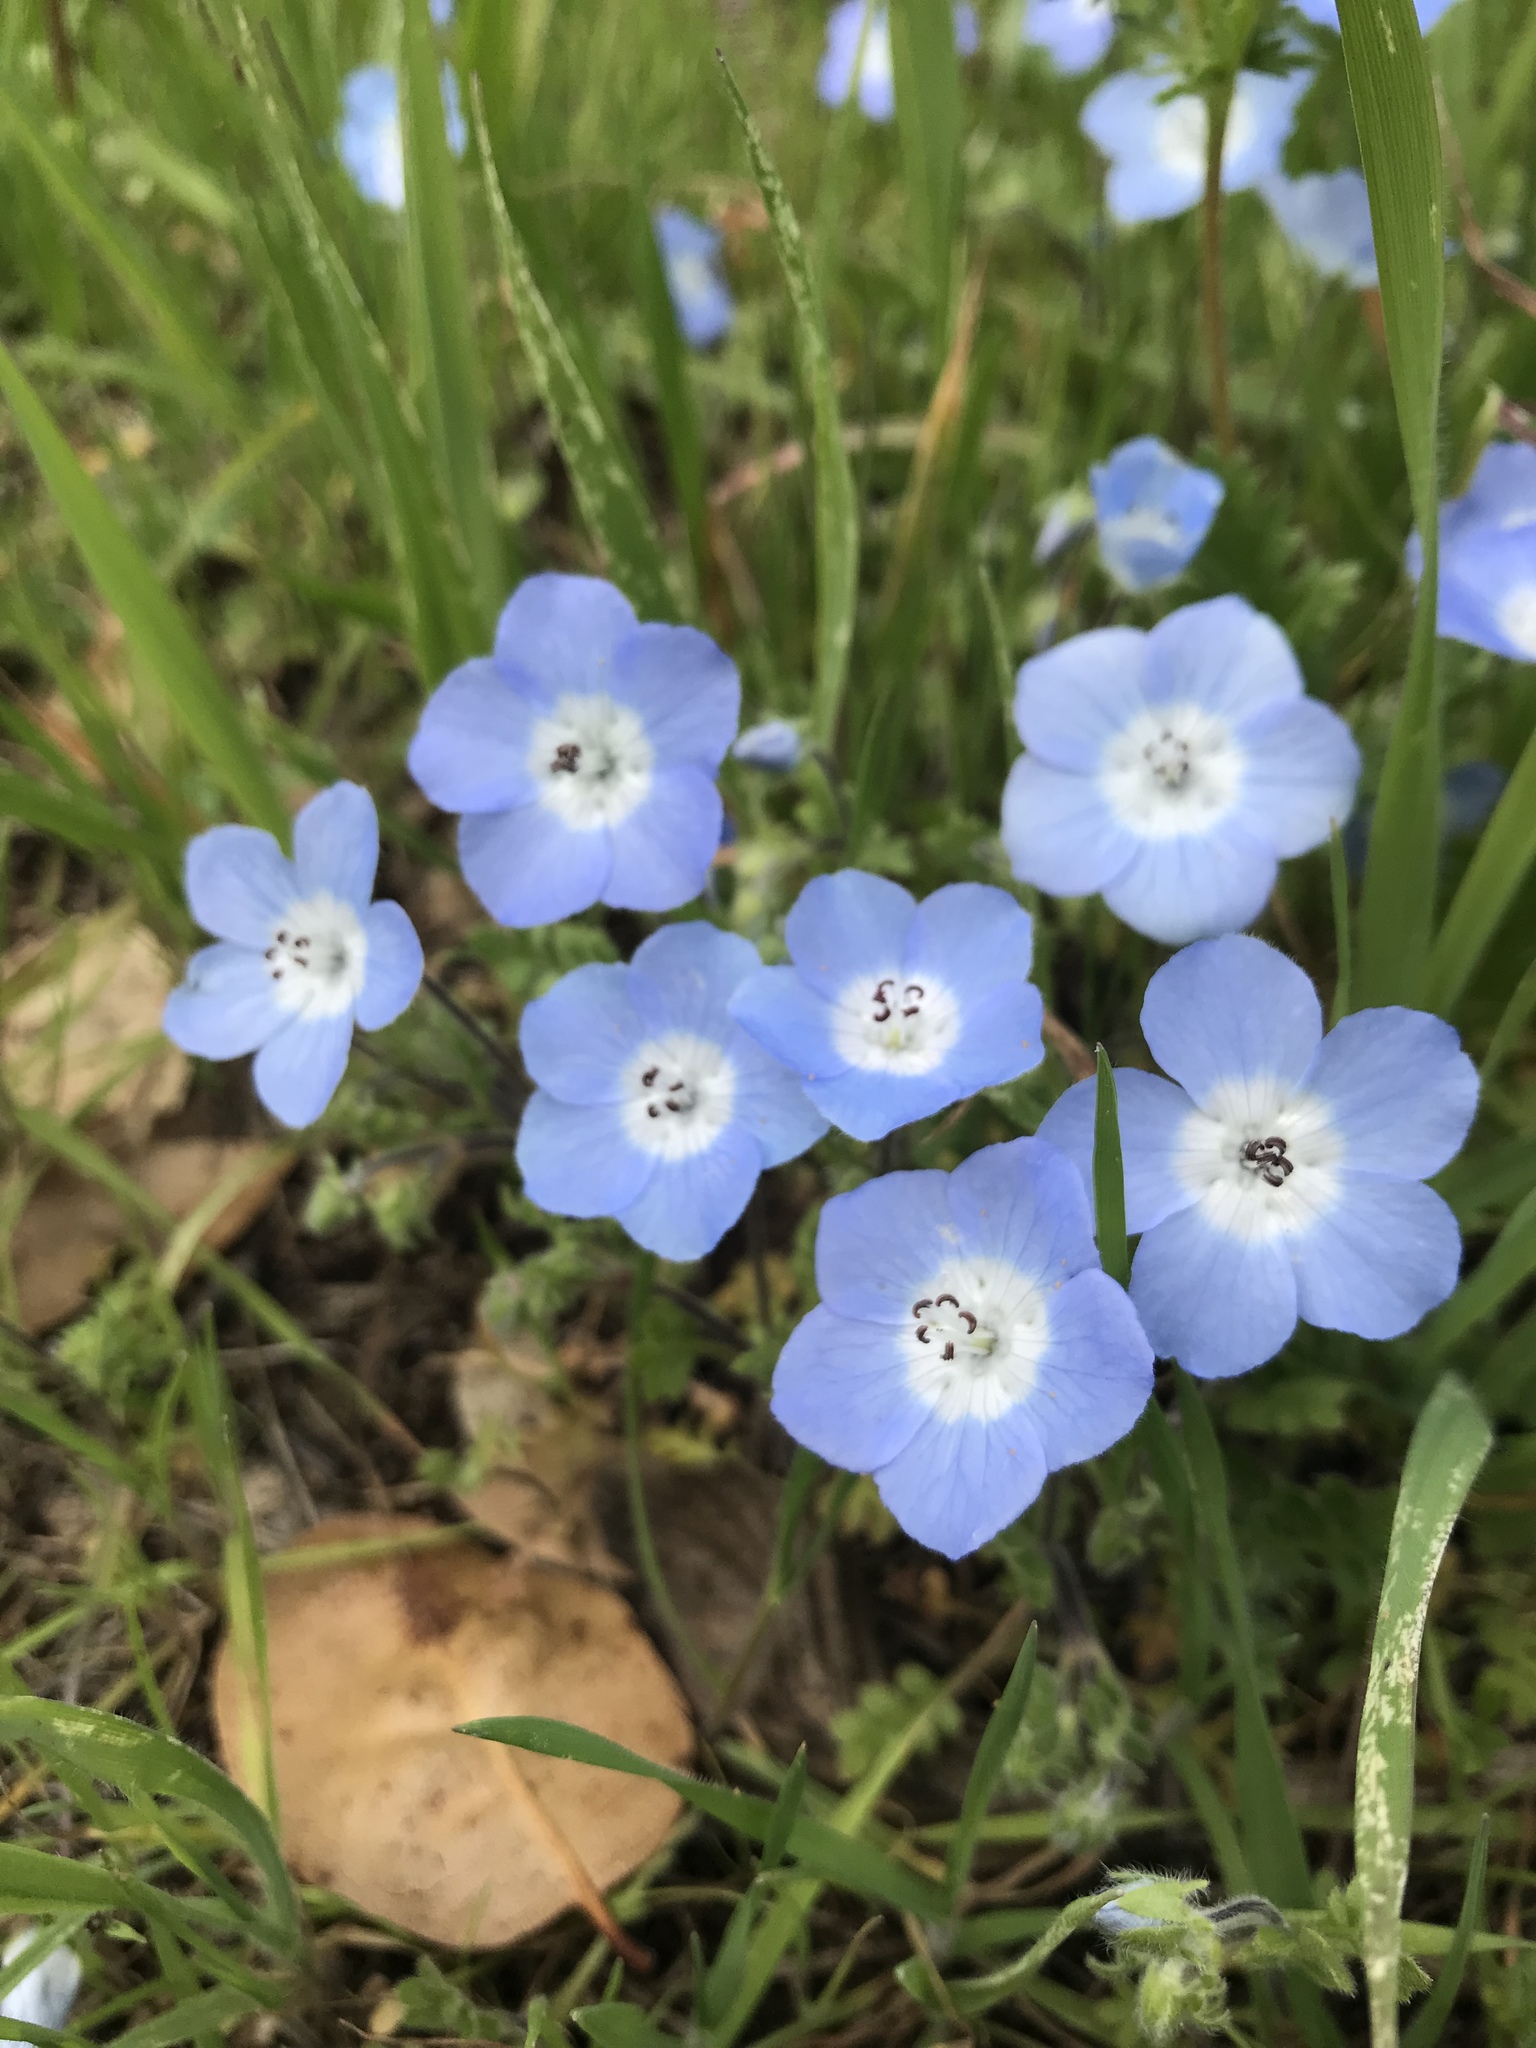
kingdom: Plantae
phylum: Tracheophyta
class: Magnoliopsida
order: Boraginales
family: Hydrophyllaceae
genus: Nemophila
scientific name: Nemophila menziesii
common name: Baby's-blue-eyes
